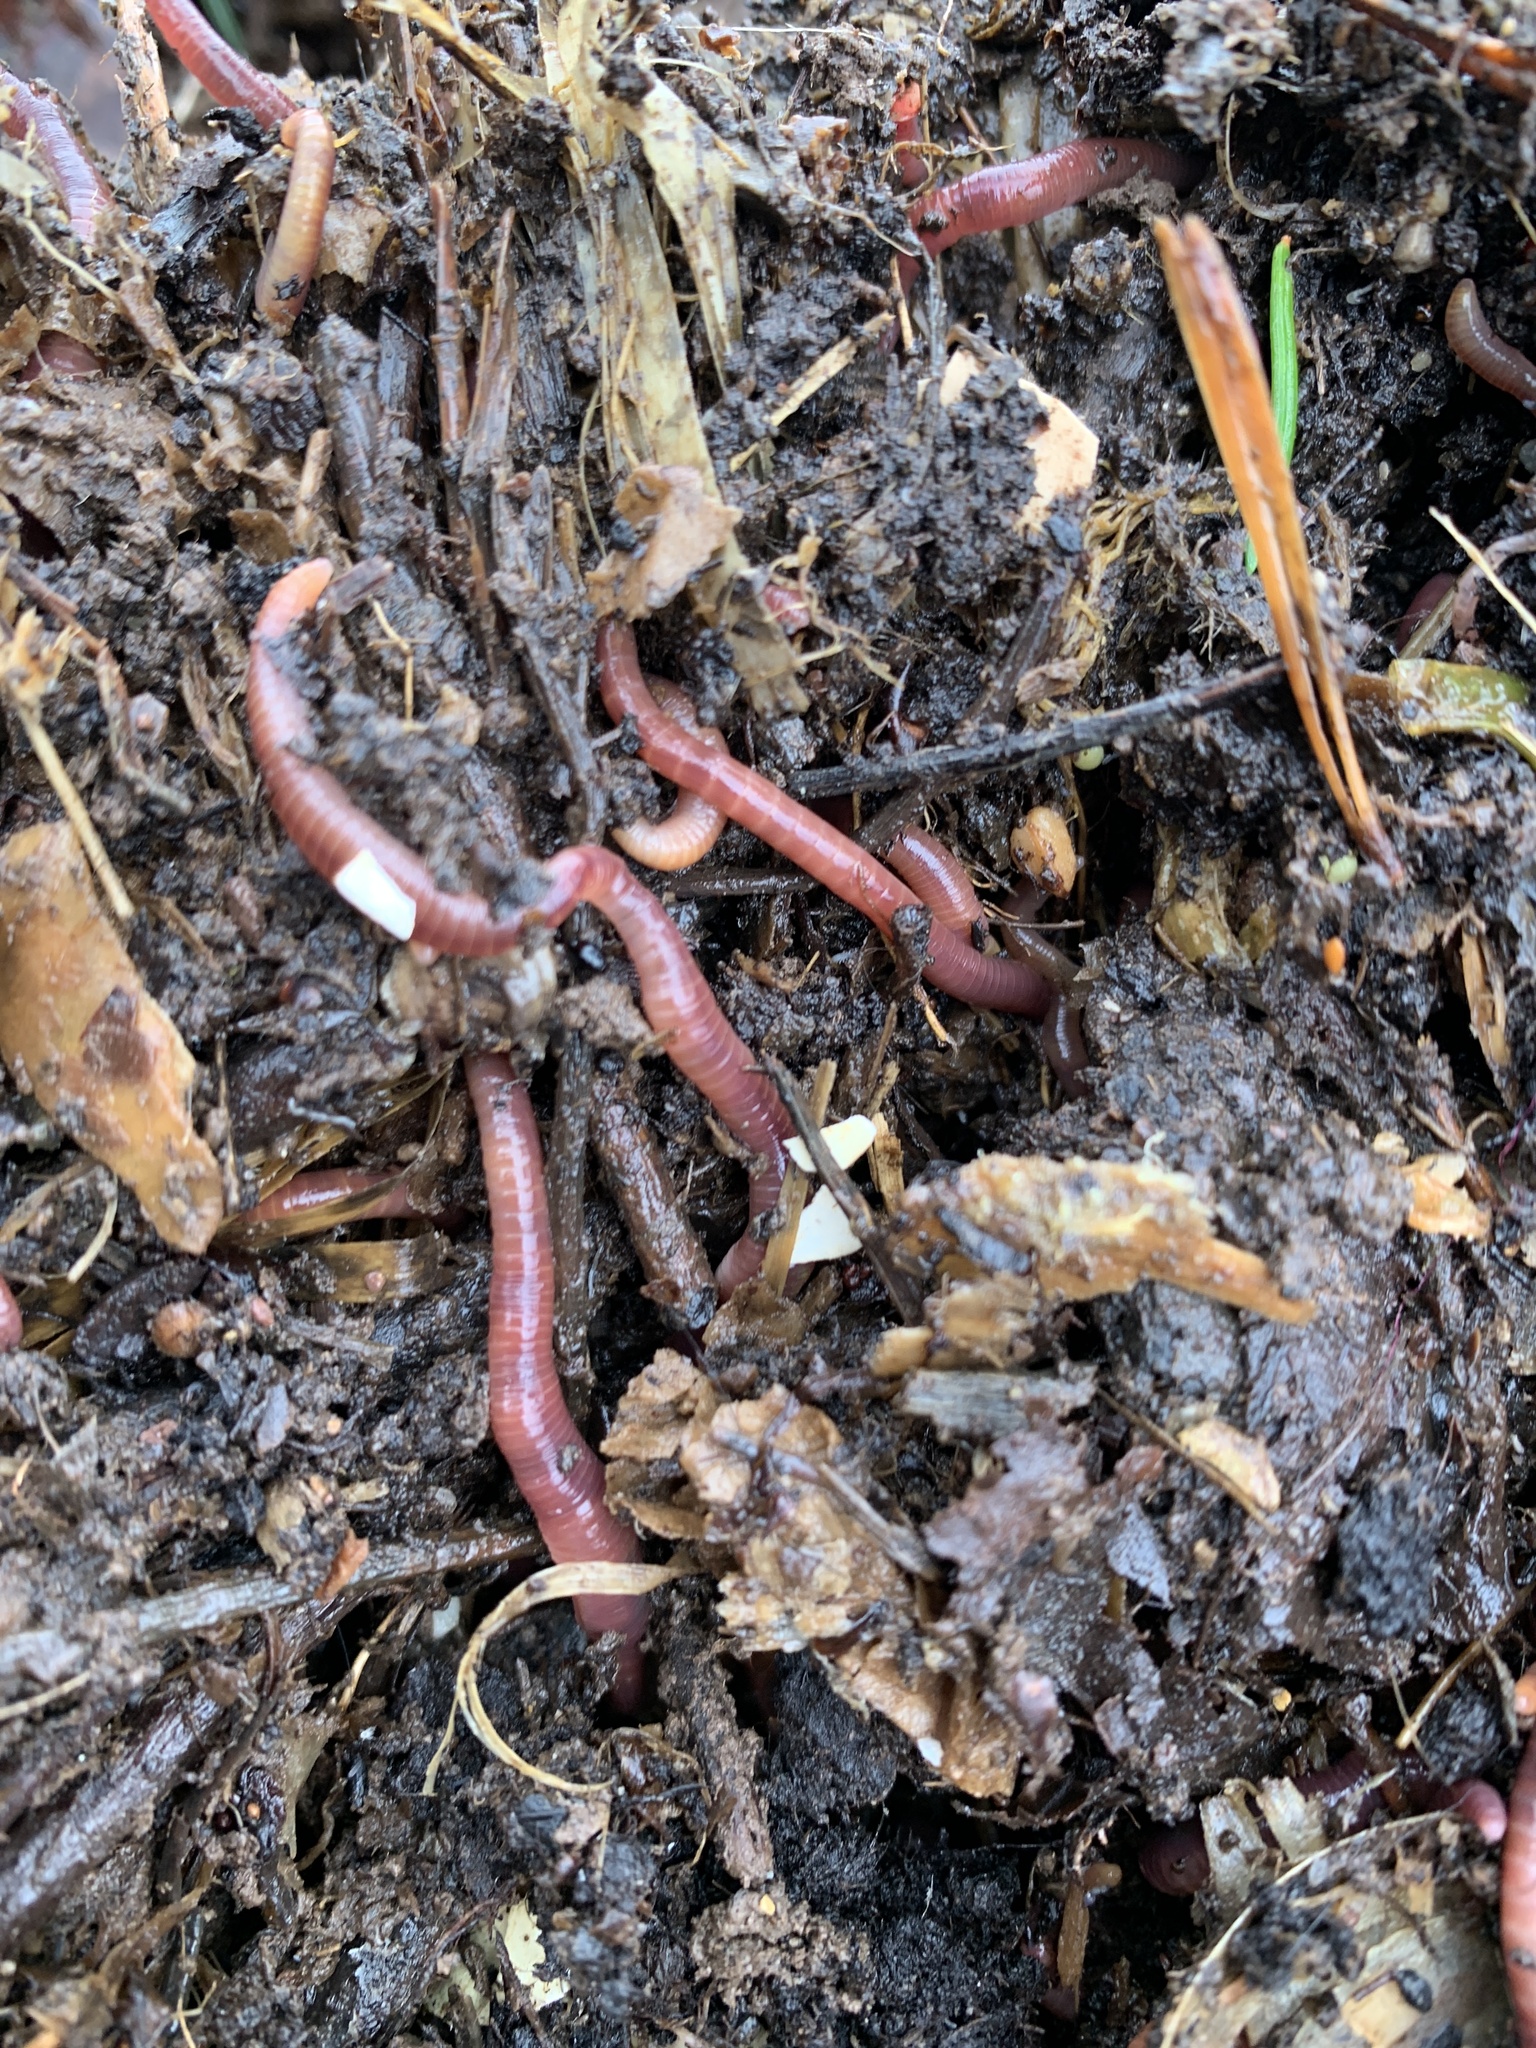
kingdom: Animalia
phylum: Annelida
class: Clitellata
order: Crassiclitellata
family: Lumbricidae
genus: Lumbricus
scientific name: Lumbricus terrestris
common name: Common earthworm
